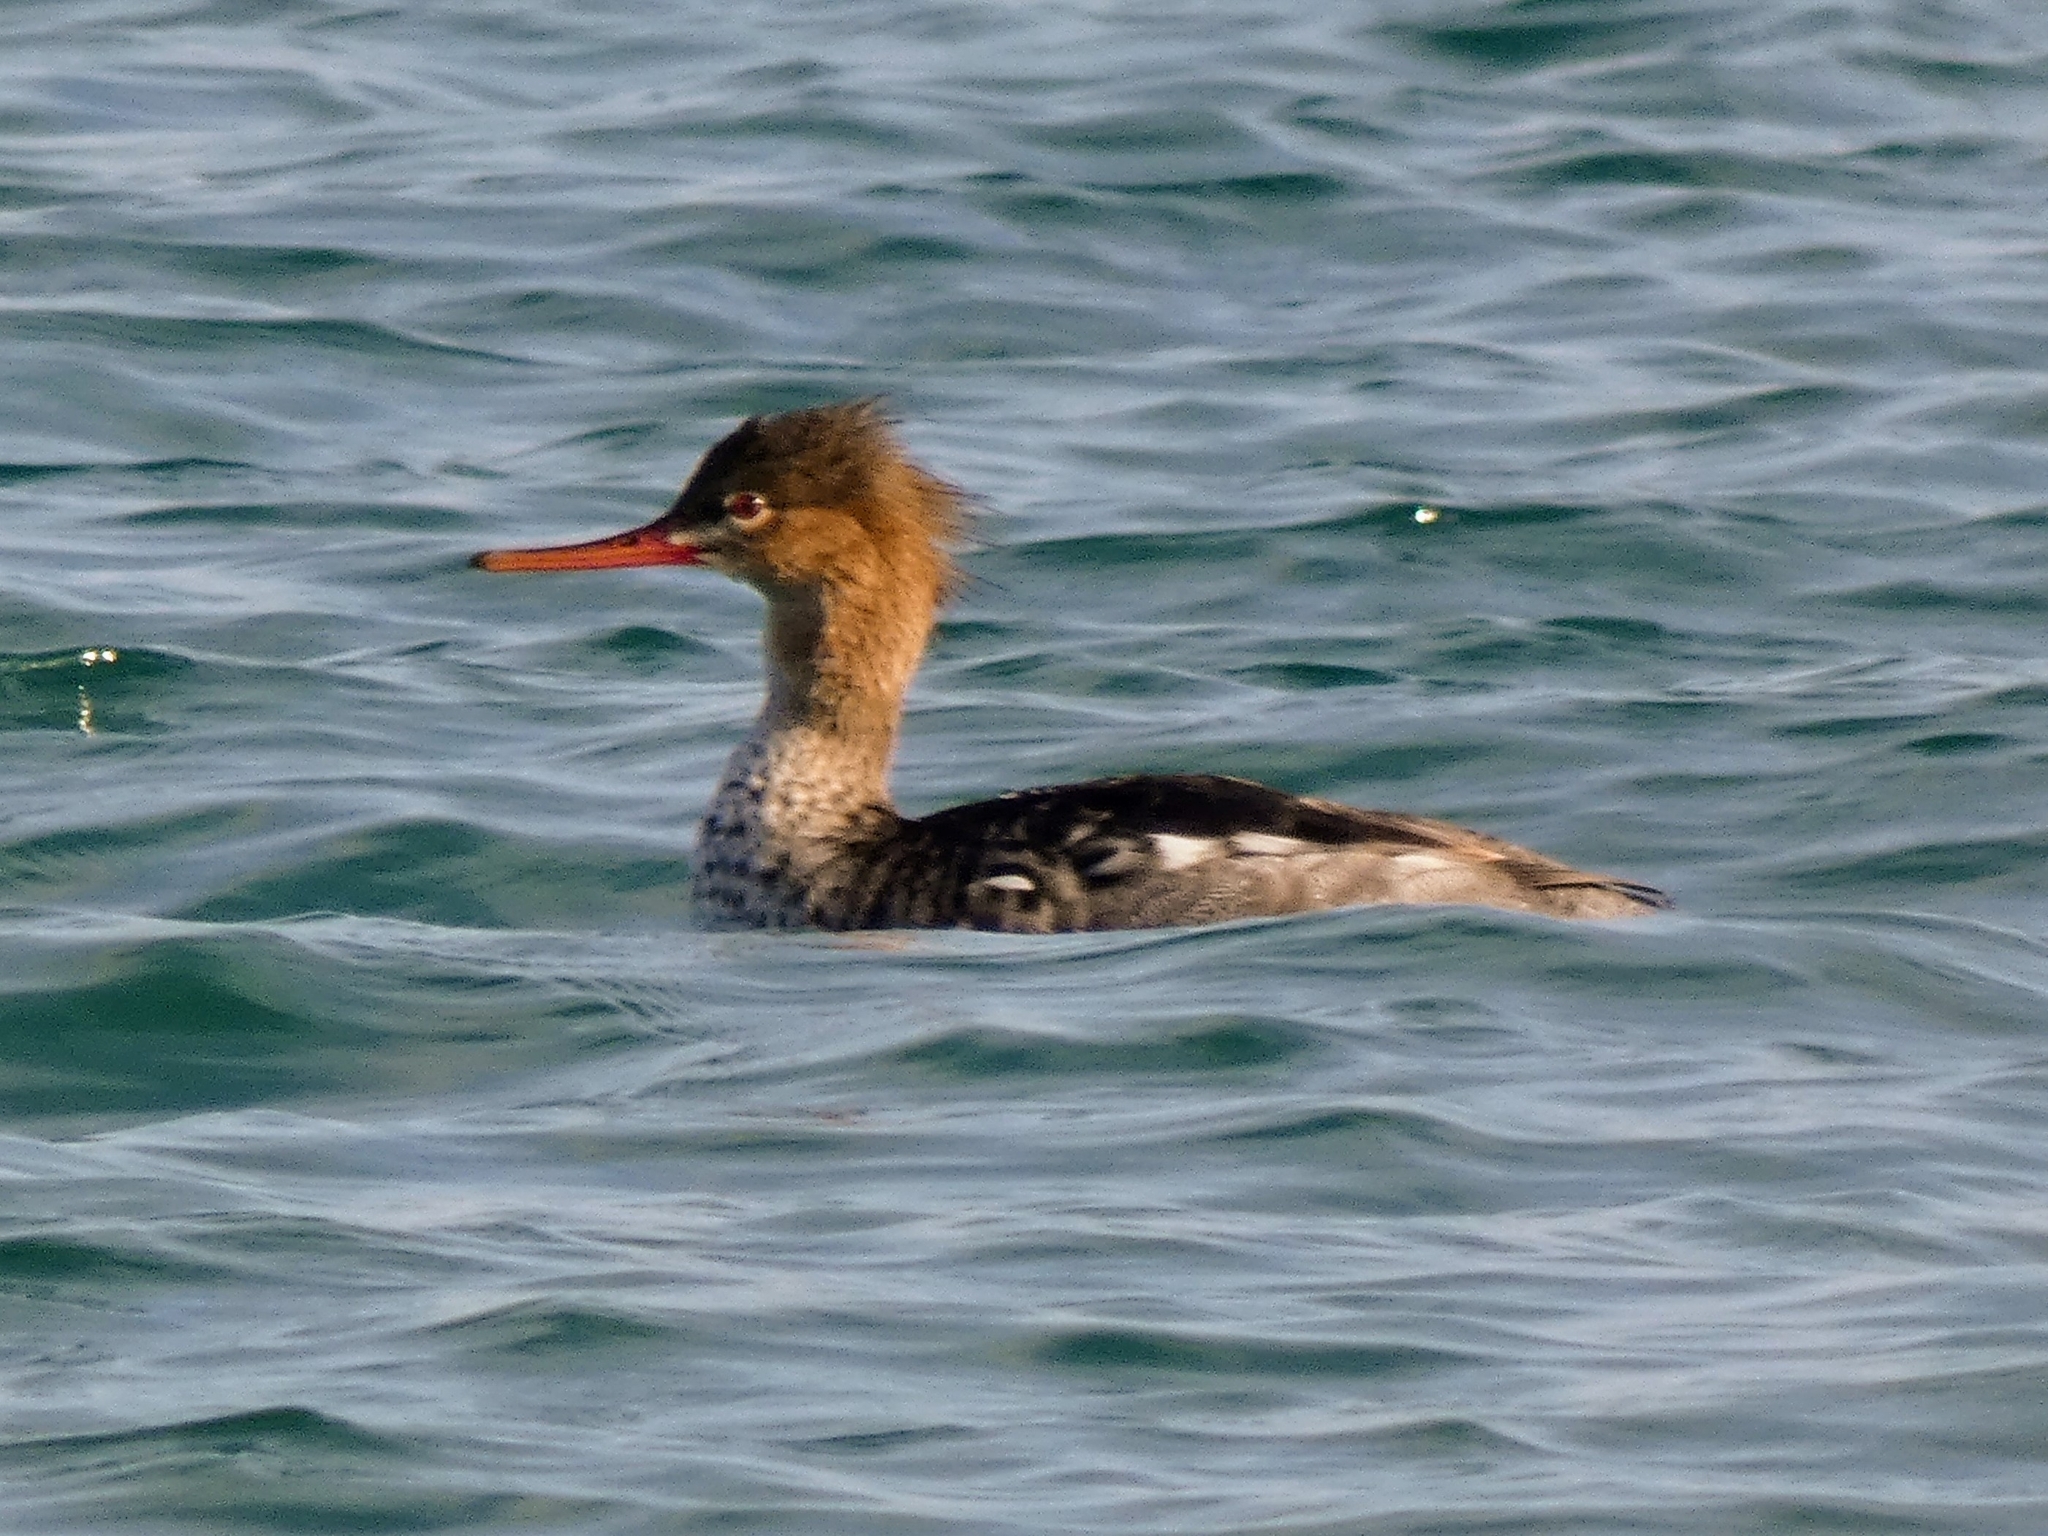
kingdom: Animalia
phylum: Chordata
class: Aves
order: Anseriformes
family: Anatidae
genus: Mergus
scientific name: Mergus serrator
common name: Red-breasted merganser
